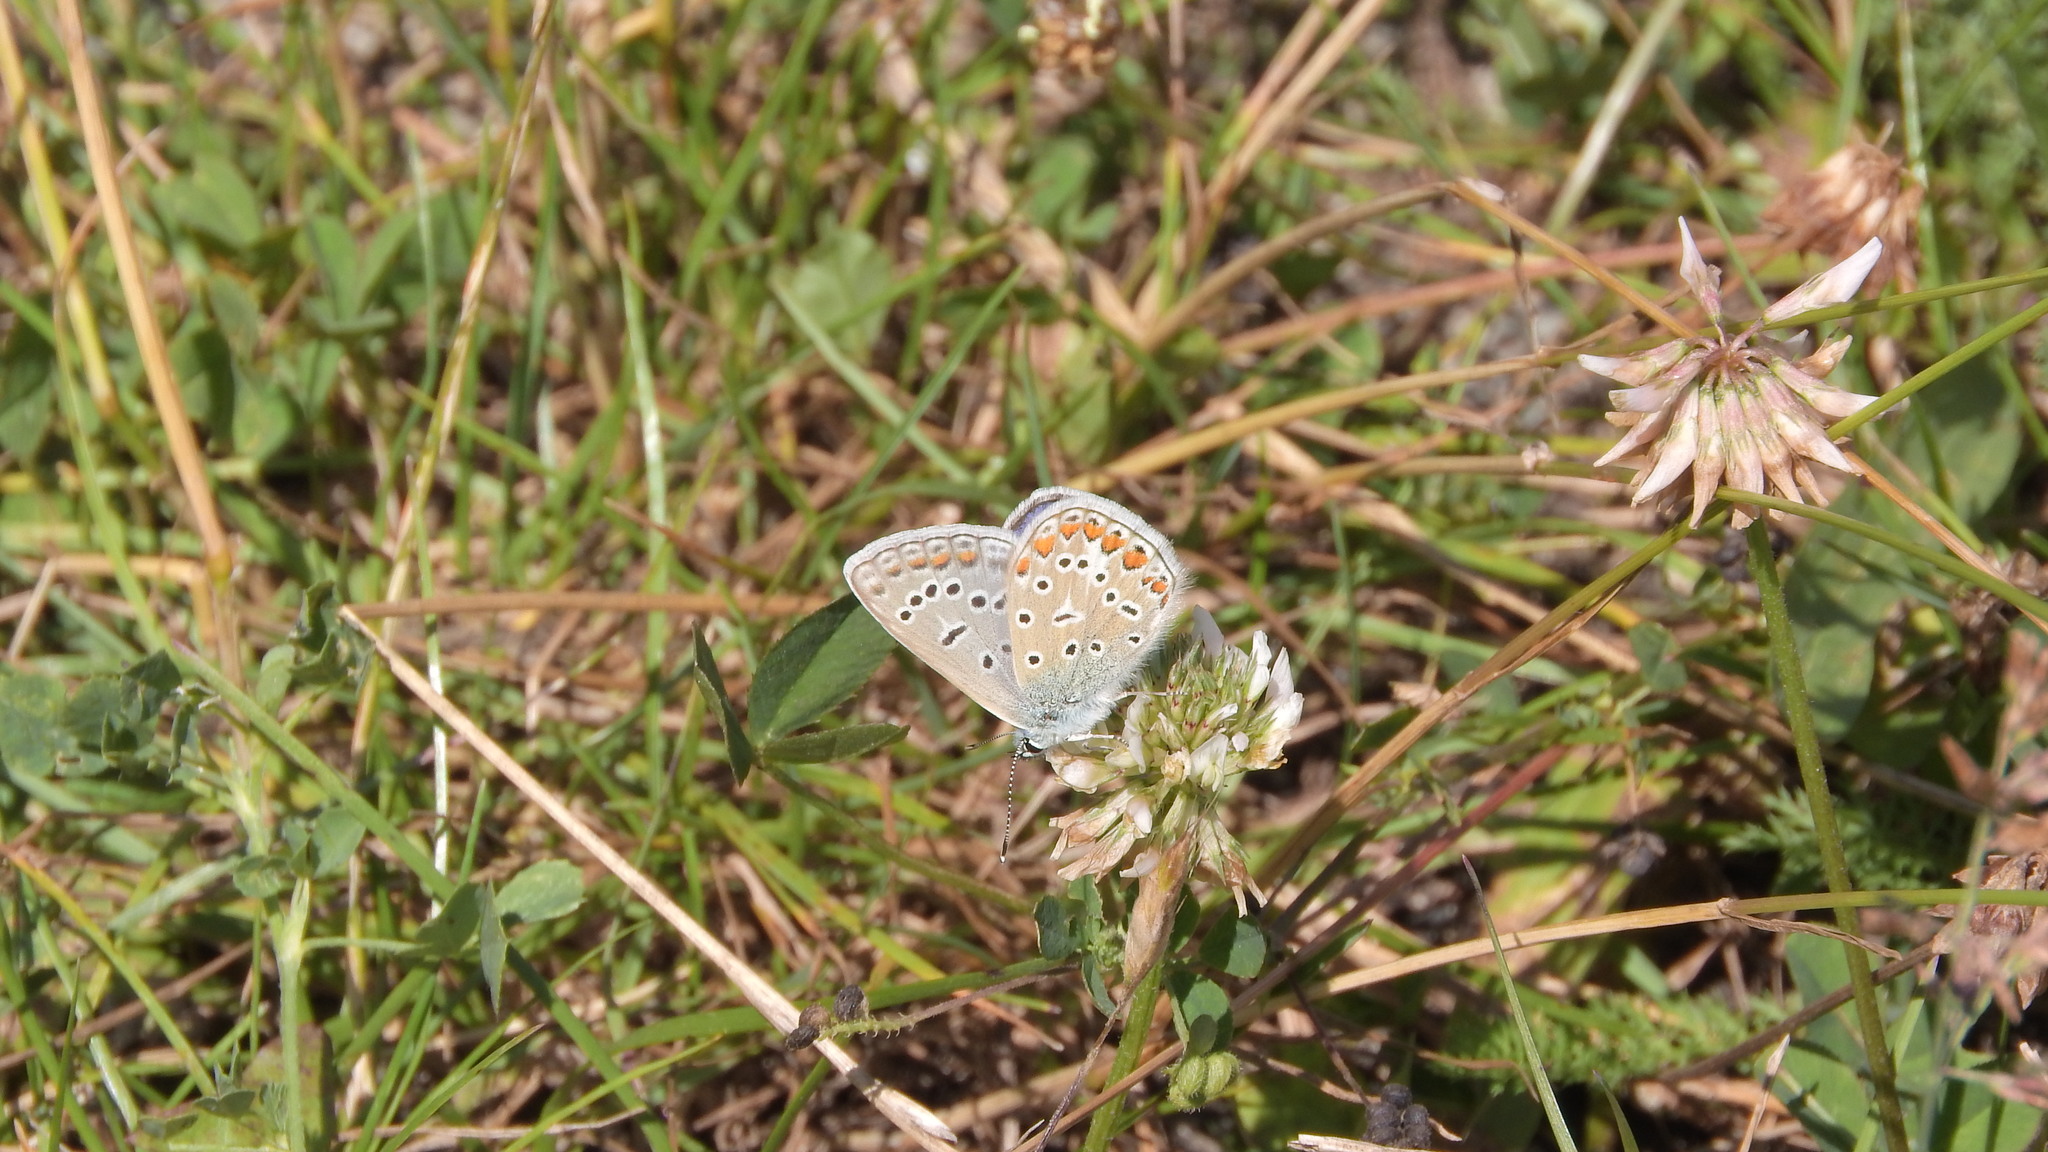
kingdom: Animalia
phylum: Arthropoda
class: Insecta
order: Lepidoptera
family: Lycaenidae
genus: Polyommatus
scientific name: Polyommatus icarus
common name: Common blue
